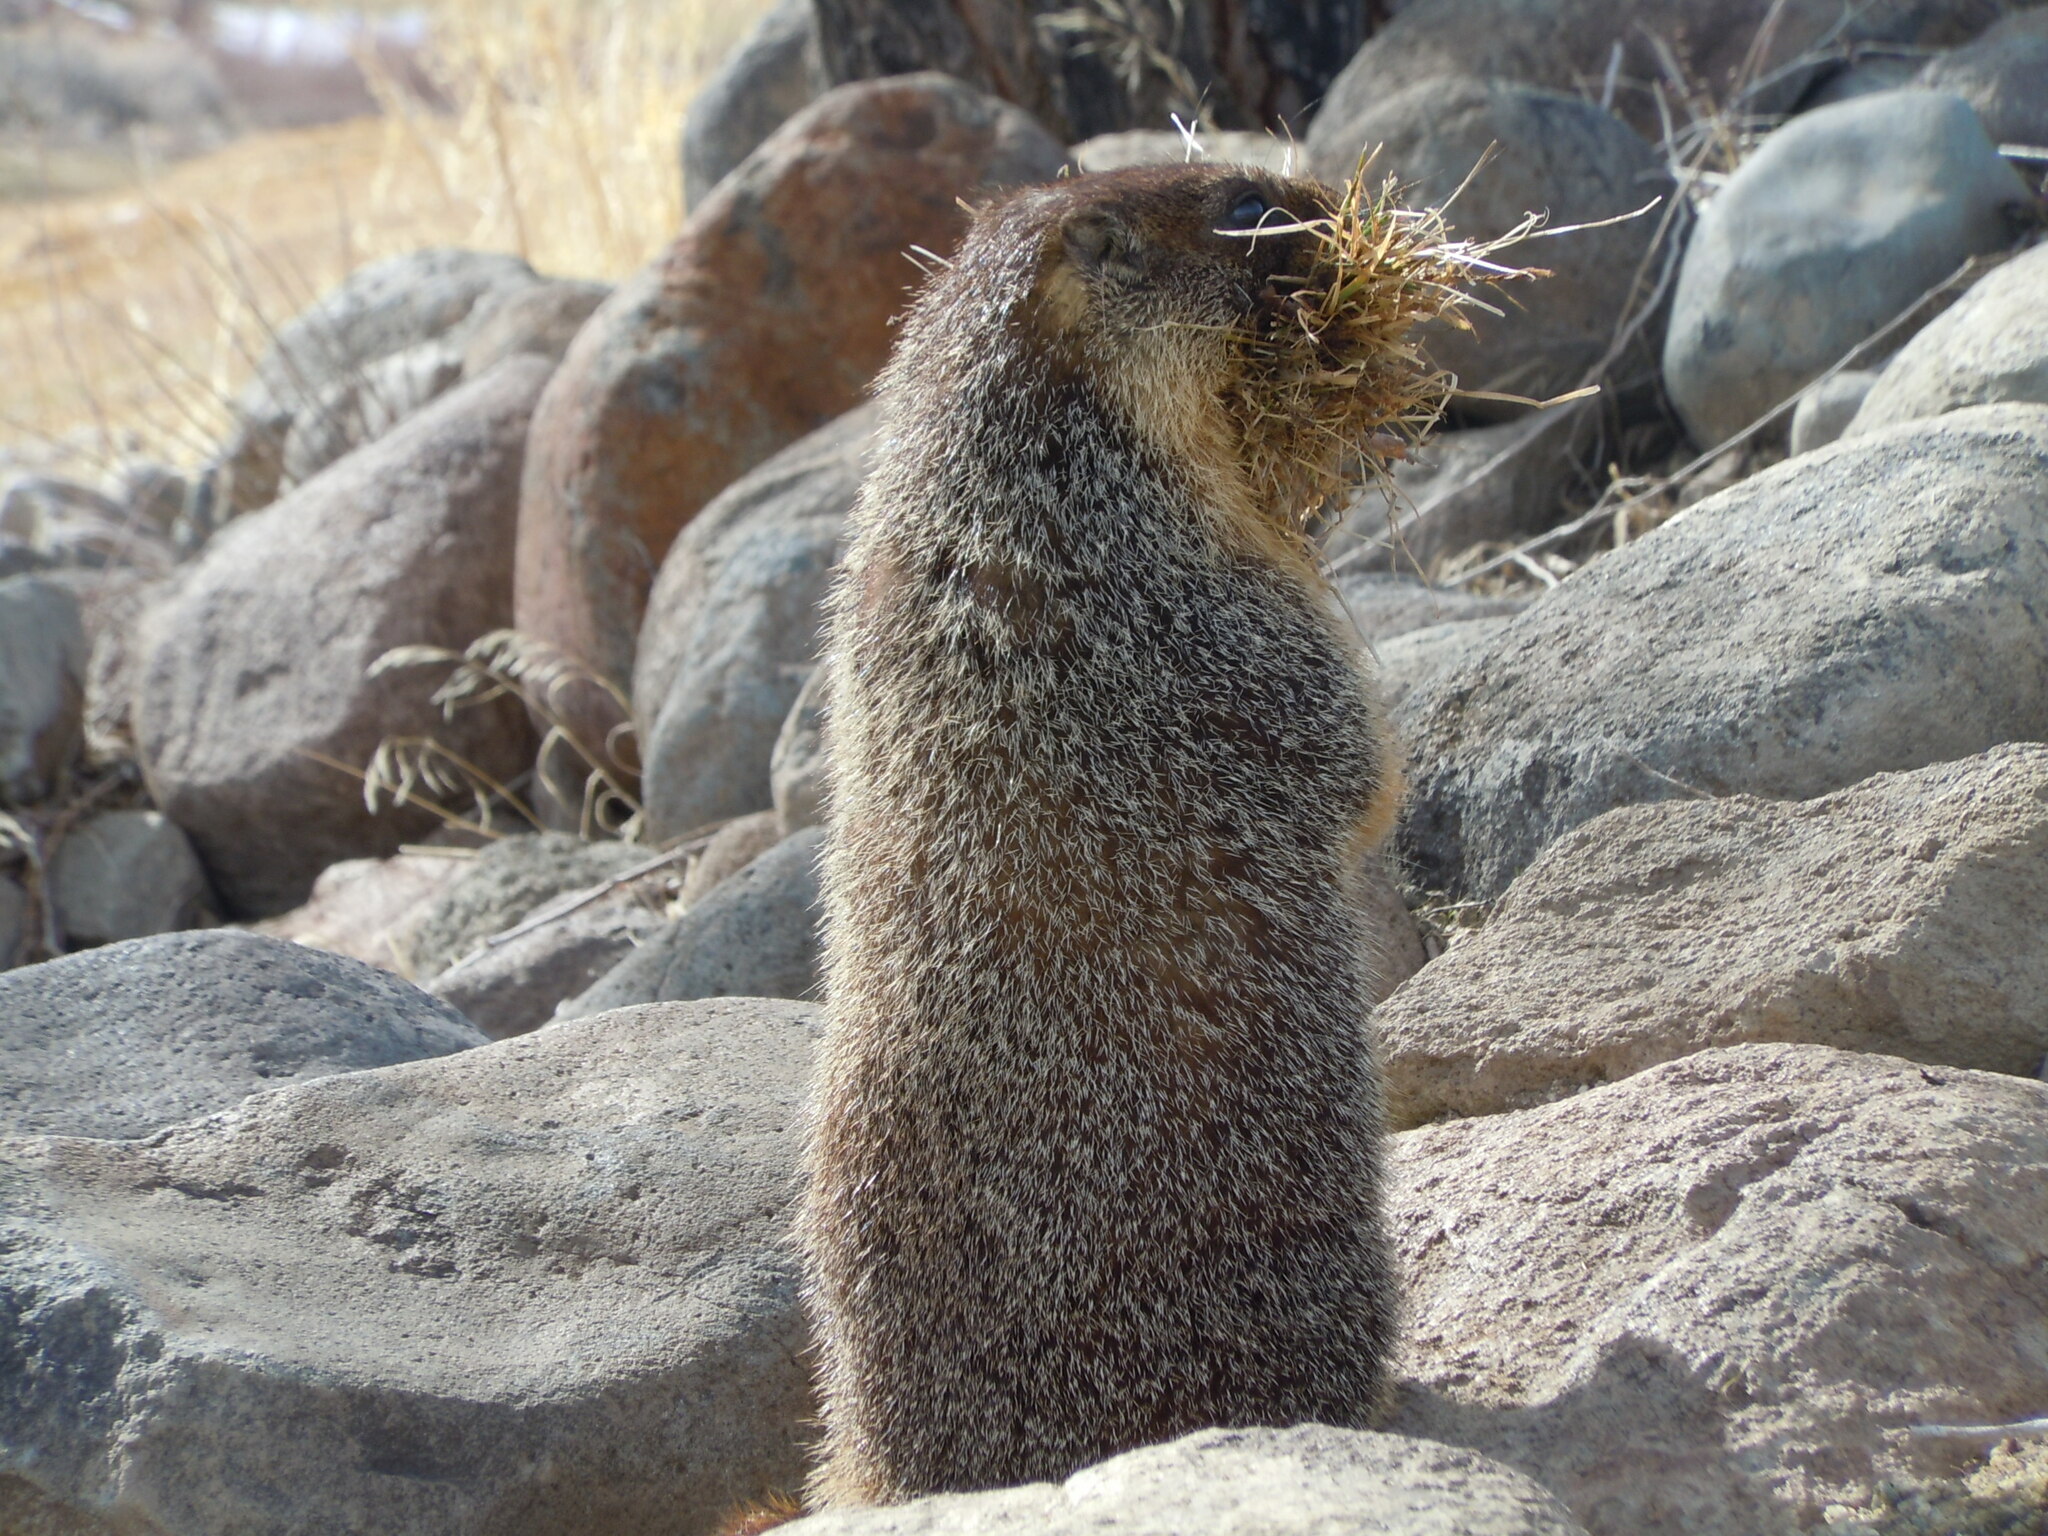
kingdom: Animalia
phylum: Chordata
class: Mammalia
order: Rodentia
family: Sciuridae
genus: Marmota
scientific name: Marmota flaviventris
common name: Yellow-bellied marmot
